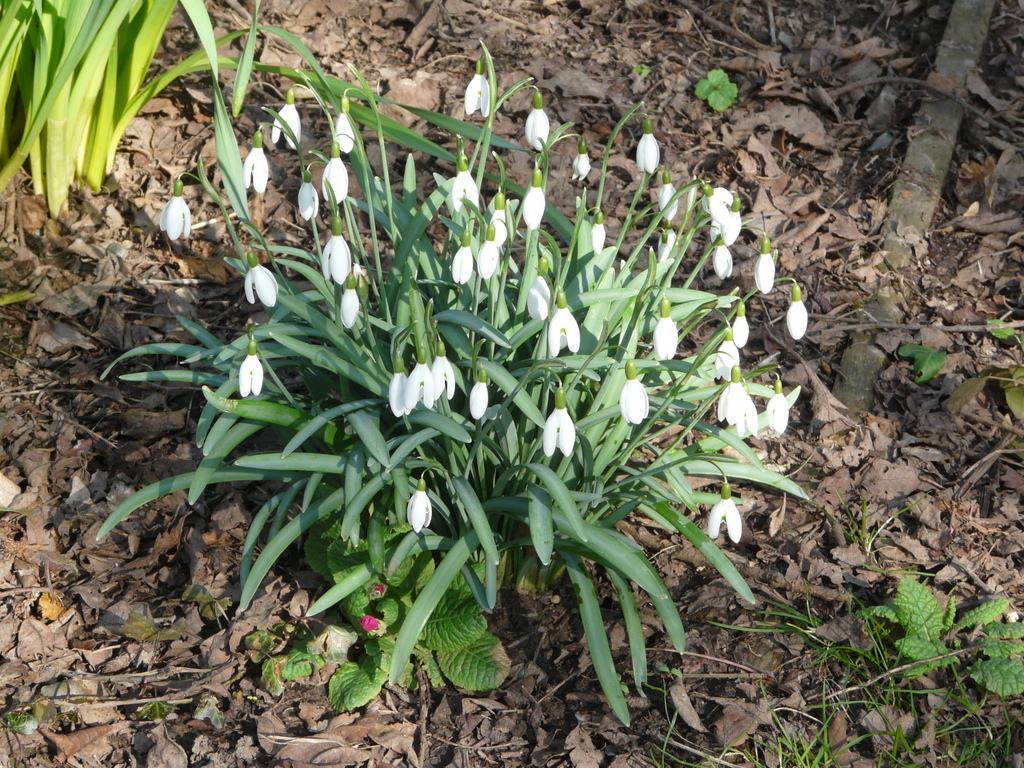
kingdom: Plantae
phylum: Tracheophyta
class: Liliopsida
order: Asparagales
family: Amaryllidaceae
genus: Galanthus
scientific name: Galanthus nivalis
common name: Snowdrop
